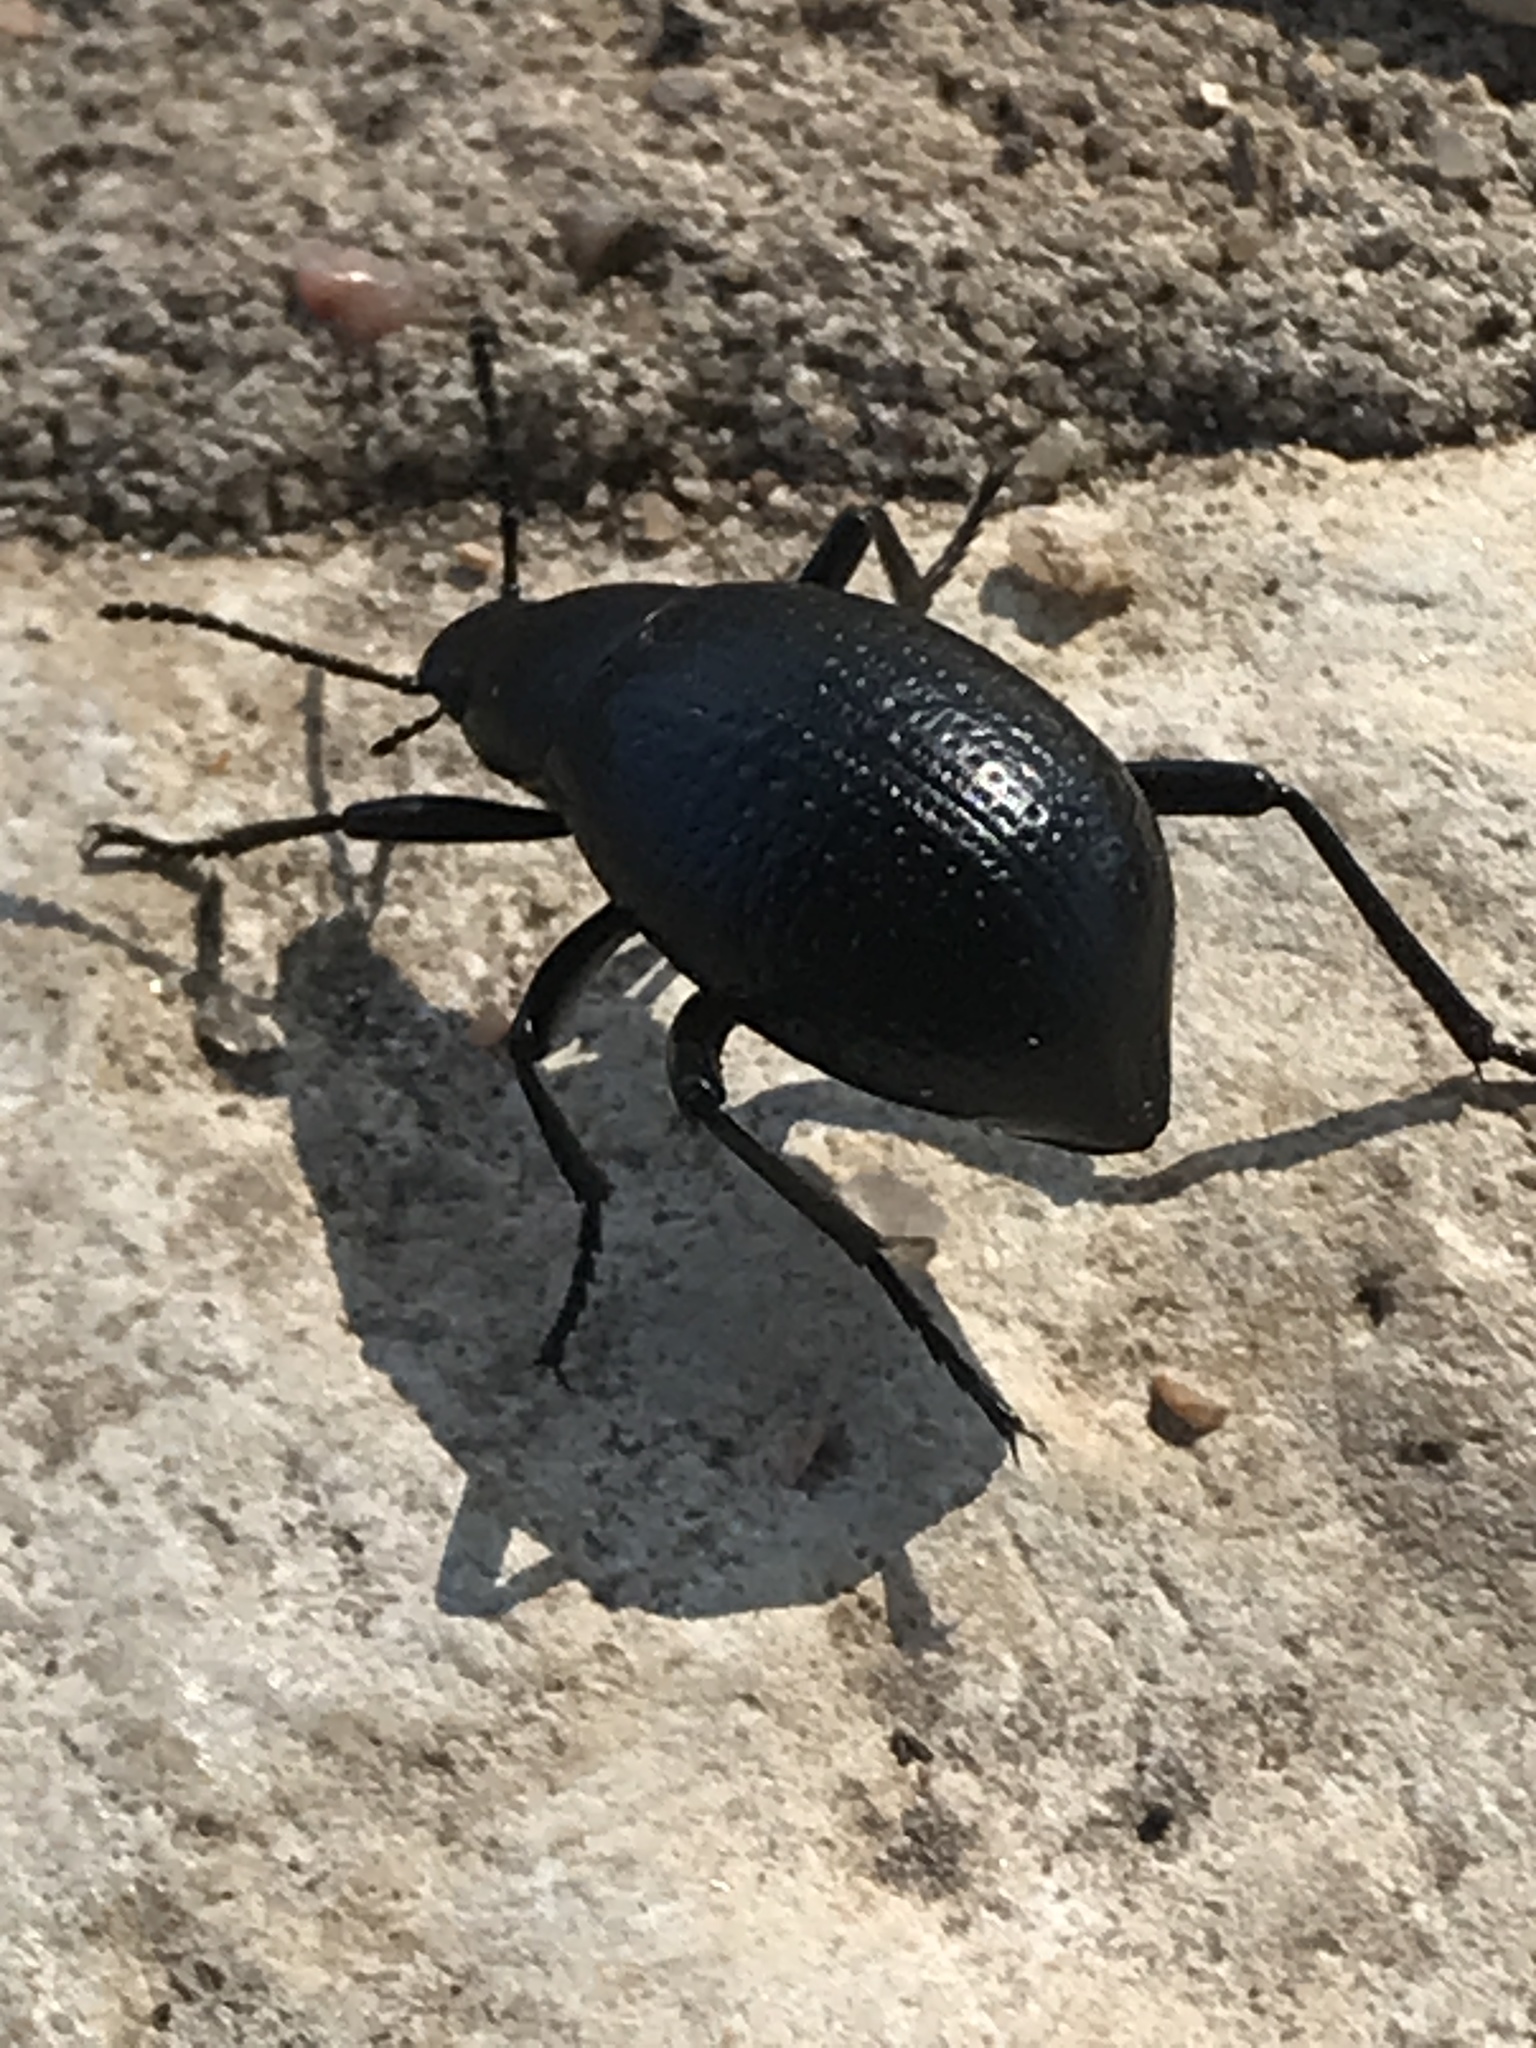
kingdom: Animalia
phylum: Arthropoda
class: Insecta
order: Coleoptera
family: Tenebrionidae
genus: Eleodes
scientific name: Eleodes goryi
